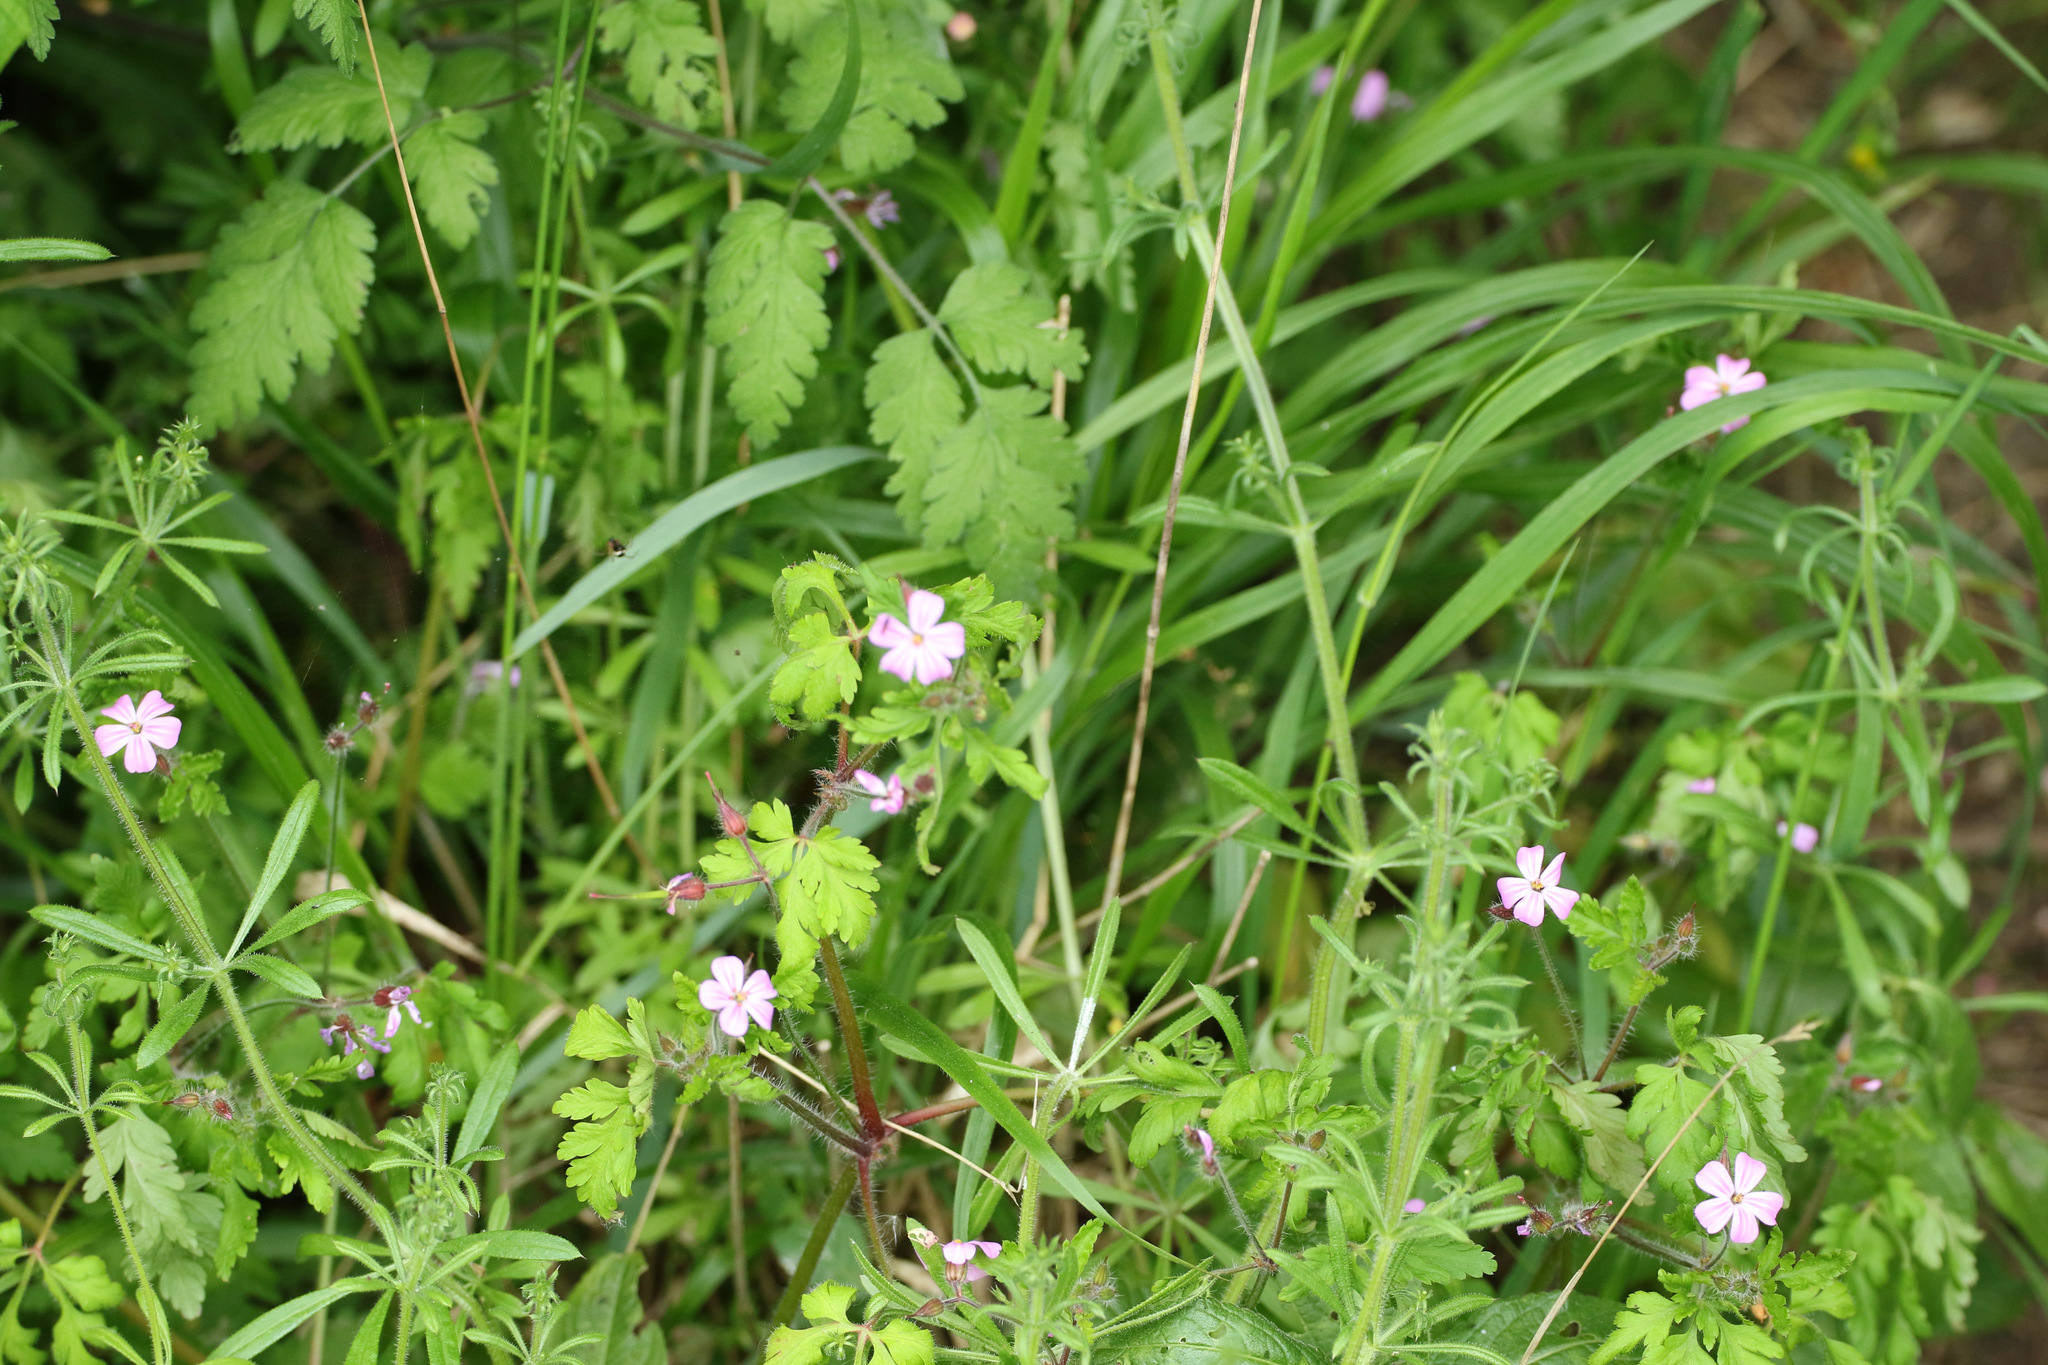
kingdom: Plantae
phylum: Tracheophyta
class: Magnoliopsida
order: Geraniales
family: Geraniaceae
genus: Geranium
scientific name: Geranium robertianum
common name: Herb-robert
